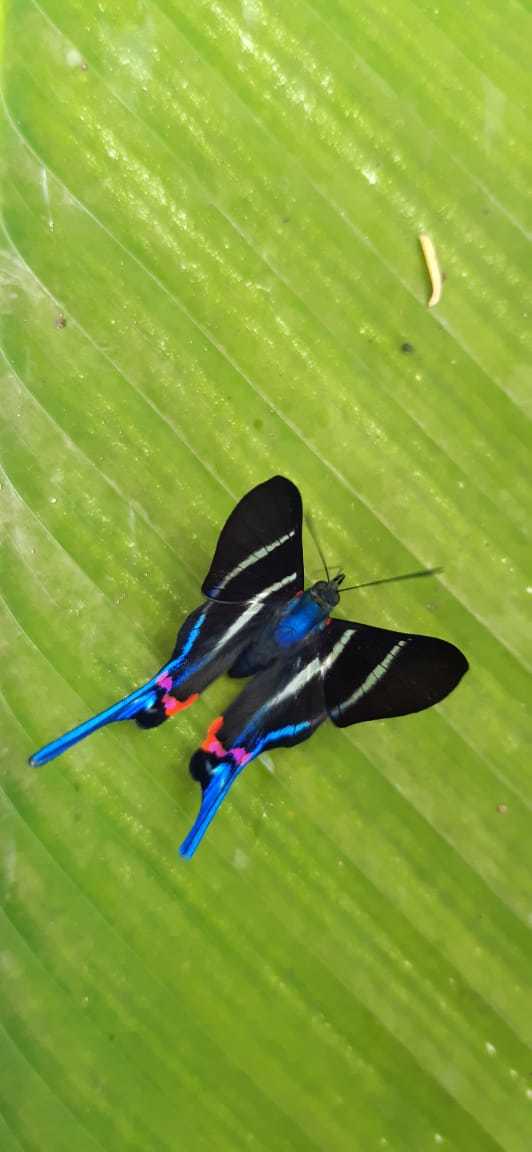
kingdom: Animalia
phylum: Arthropoda
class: Insecta
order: Lepidoptera
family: Riodinidae
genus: Rhetus
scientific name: Rhetus arcius
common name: Long-tailed metalmark
